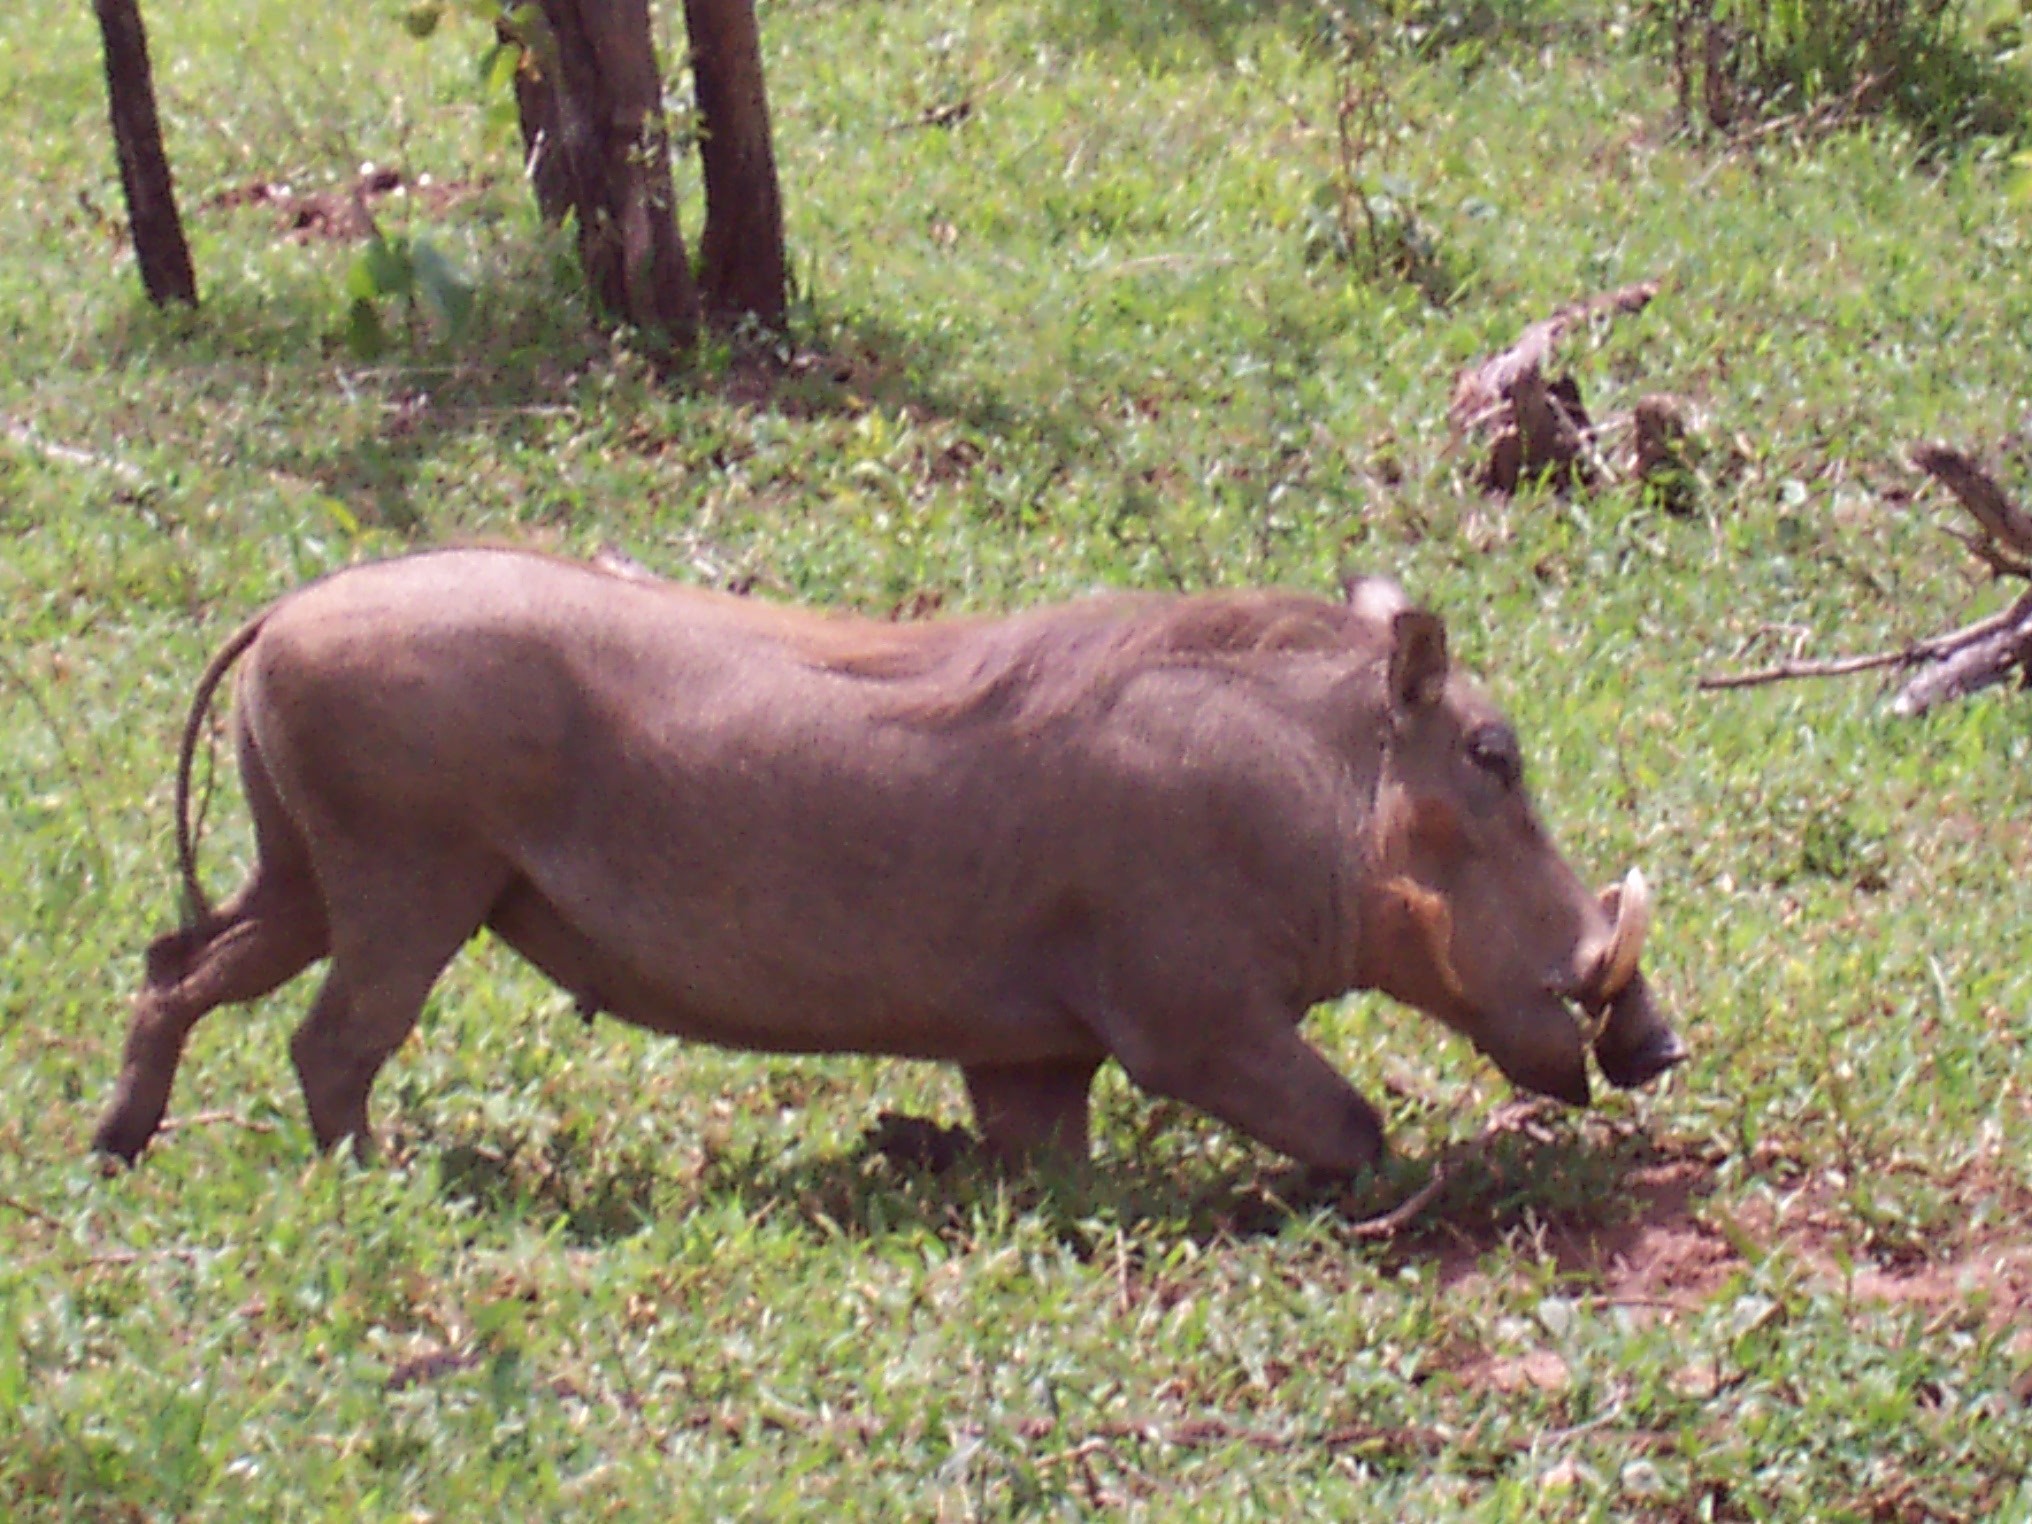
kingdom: Animalia
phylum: Chordata
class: Mammalia
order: Artiodactyla
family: Suidae
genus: Phacochoerus
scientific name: Phacochoerus africanus
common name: Common warthog
